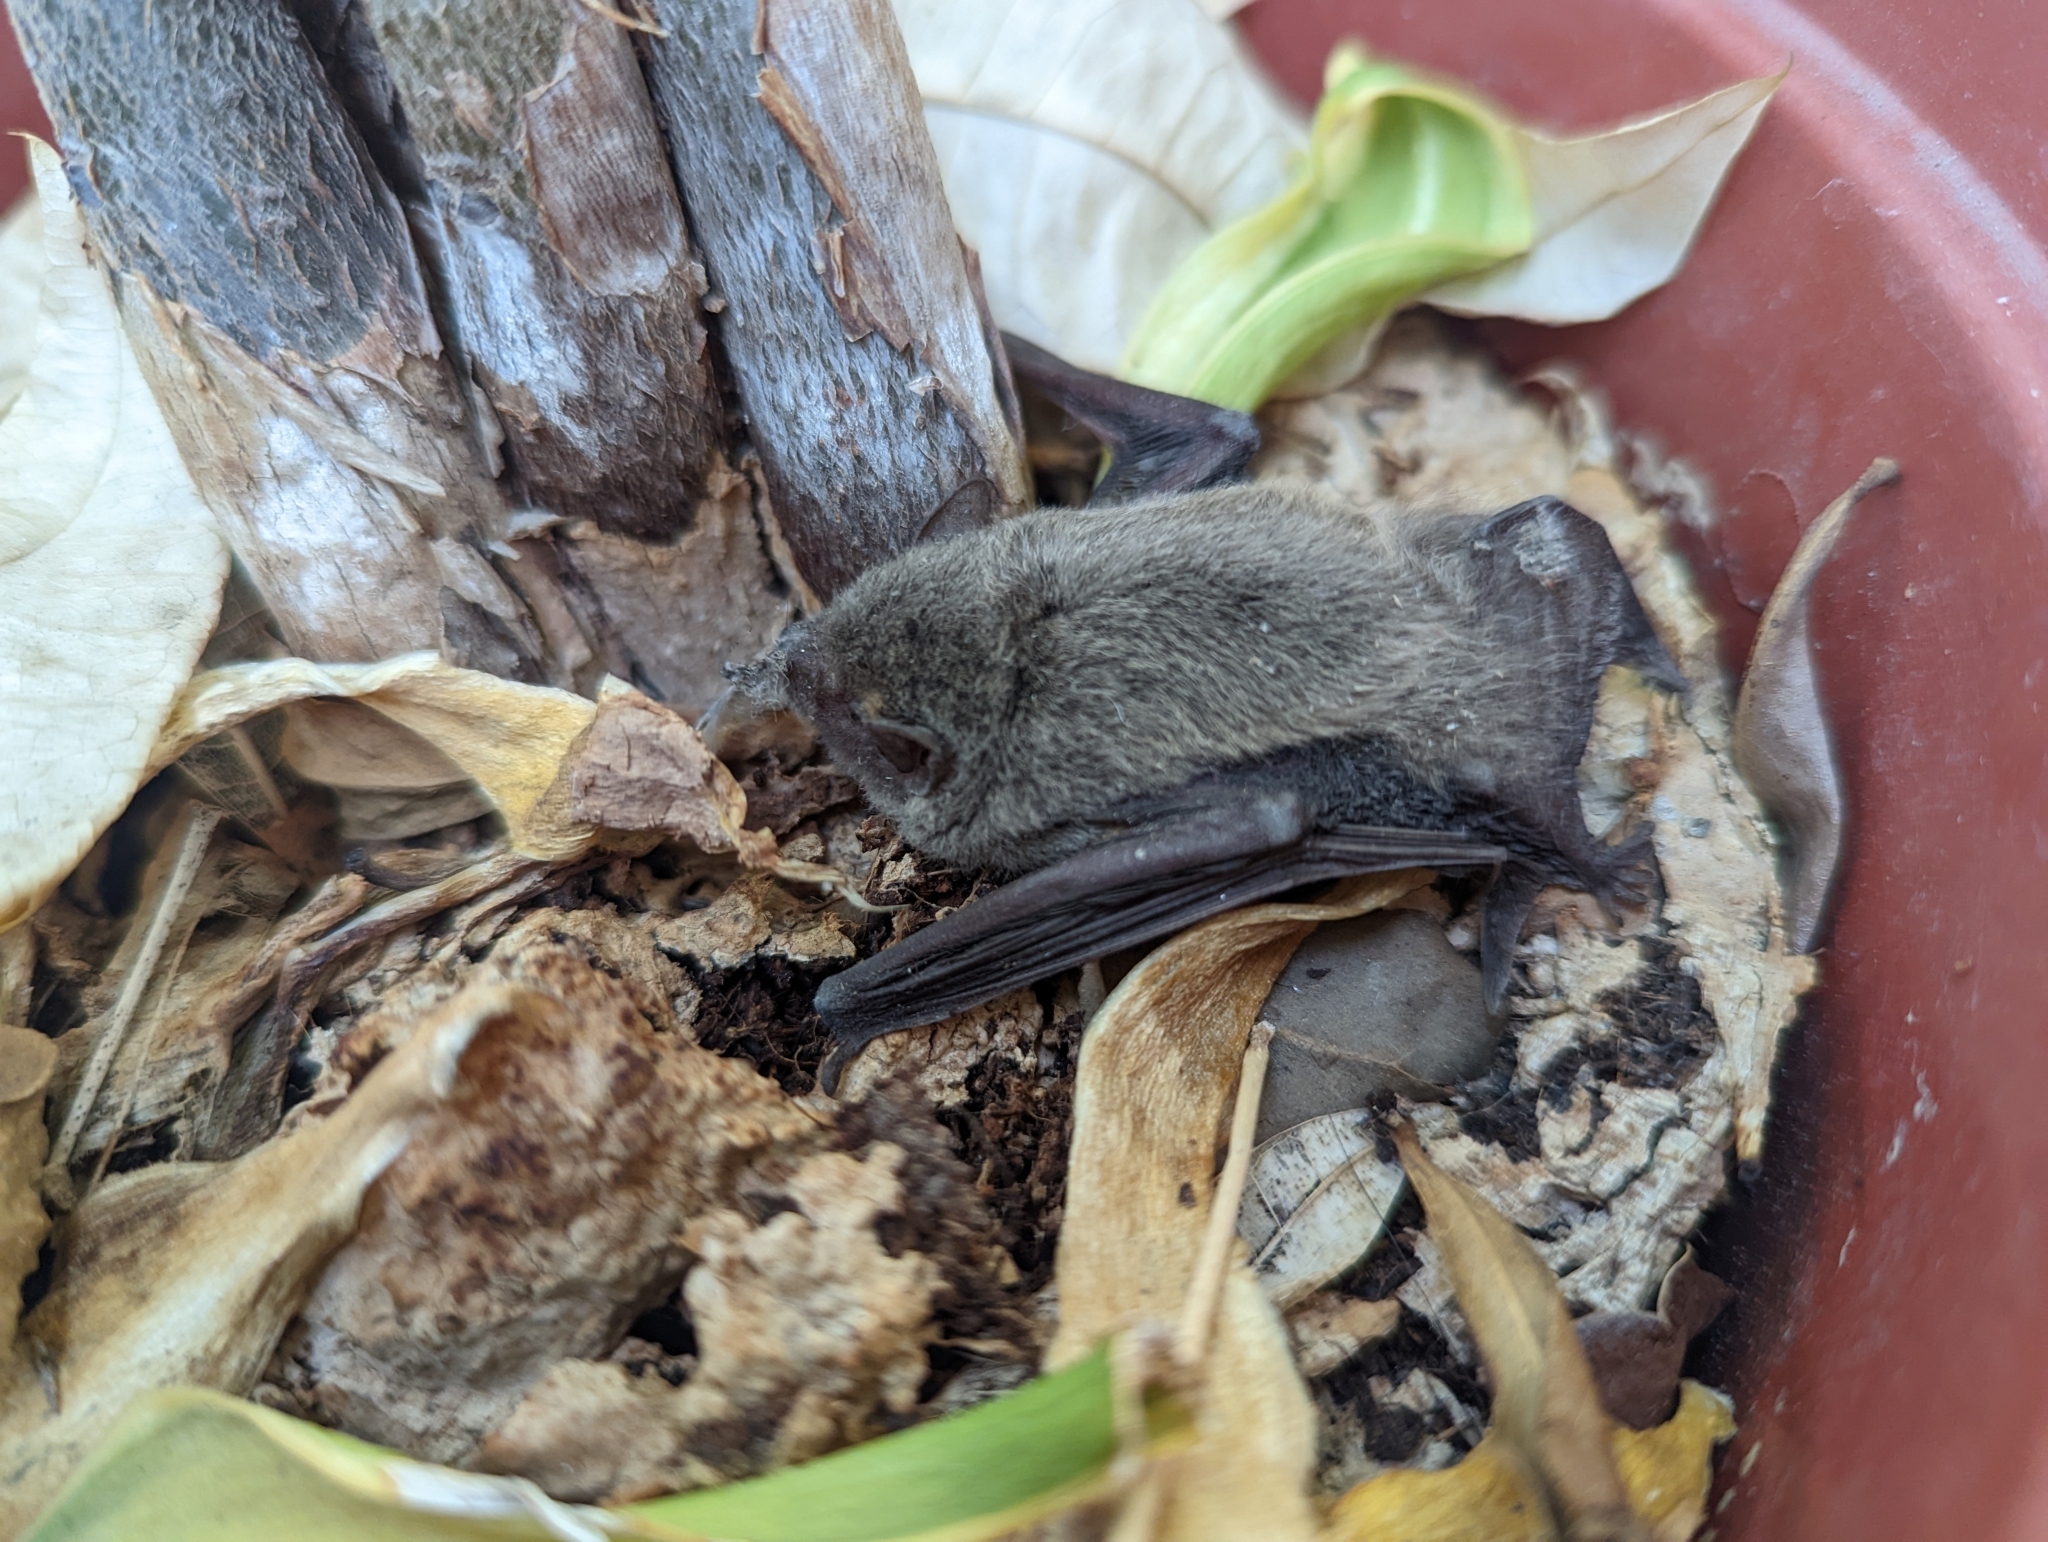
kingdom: Animalia
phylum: Chordata
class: Mammalia
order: Chiroptera
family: Vespertilionidae
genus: Pipistrellus
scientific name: Pipistrellus abramus
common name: Japanese pipistrelle
